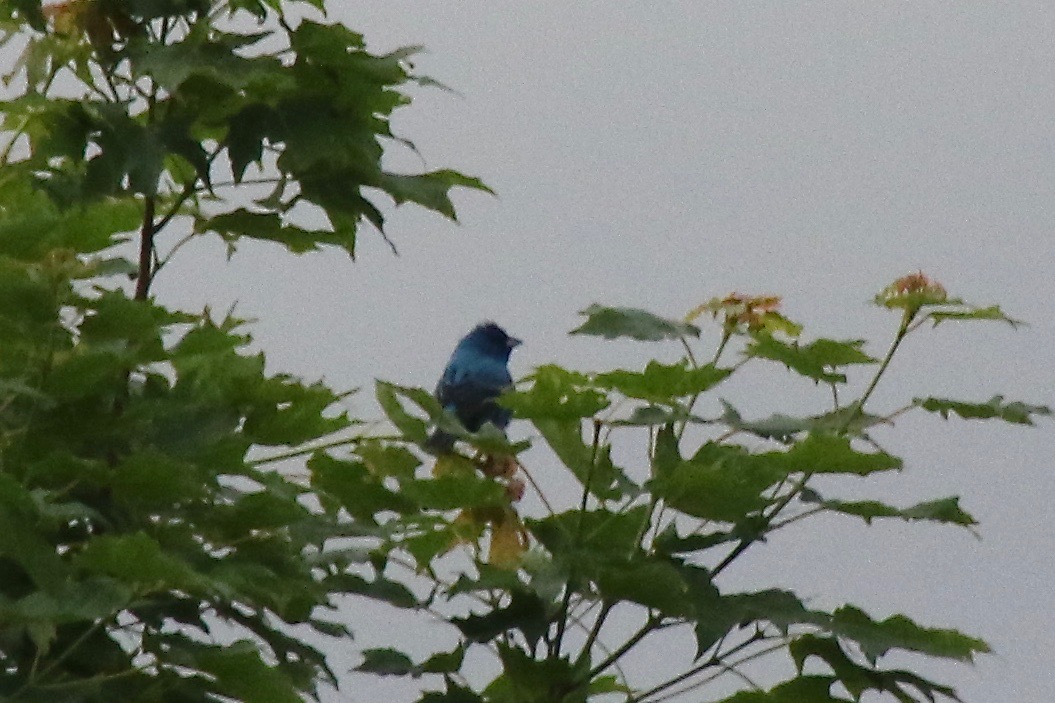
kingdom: Animalia
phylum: Chordata
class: Aves
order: Passeriformes
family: Cardinalidae
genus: Passerina
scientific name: Passerina cyanea
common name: Indigo bunting
